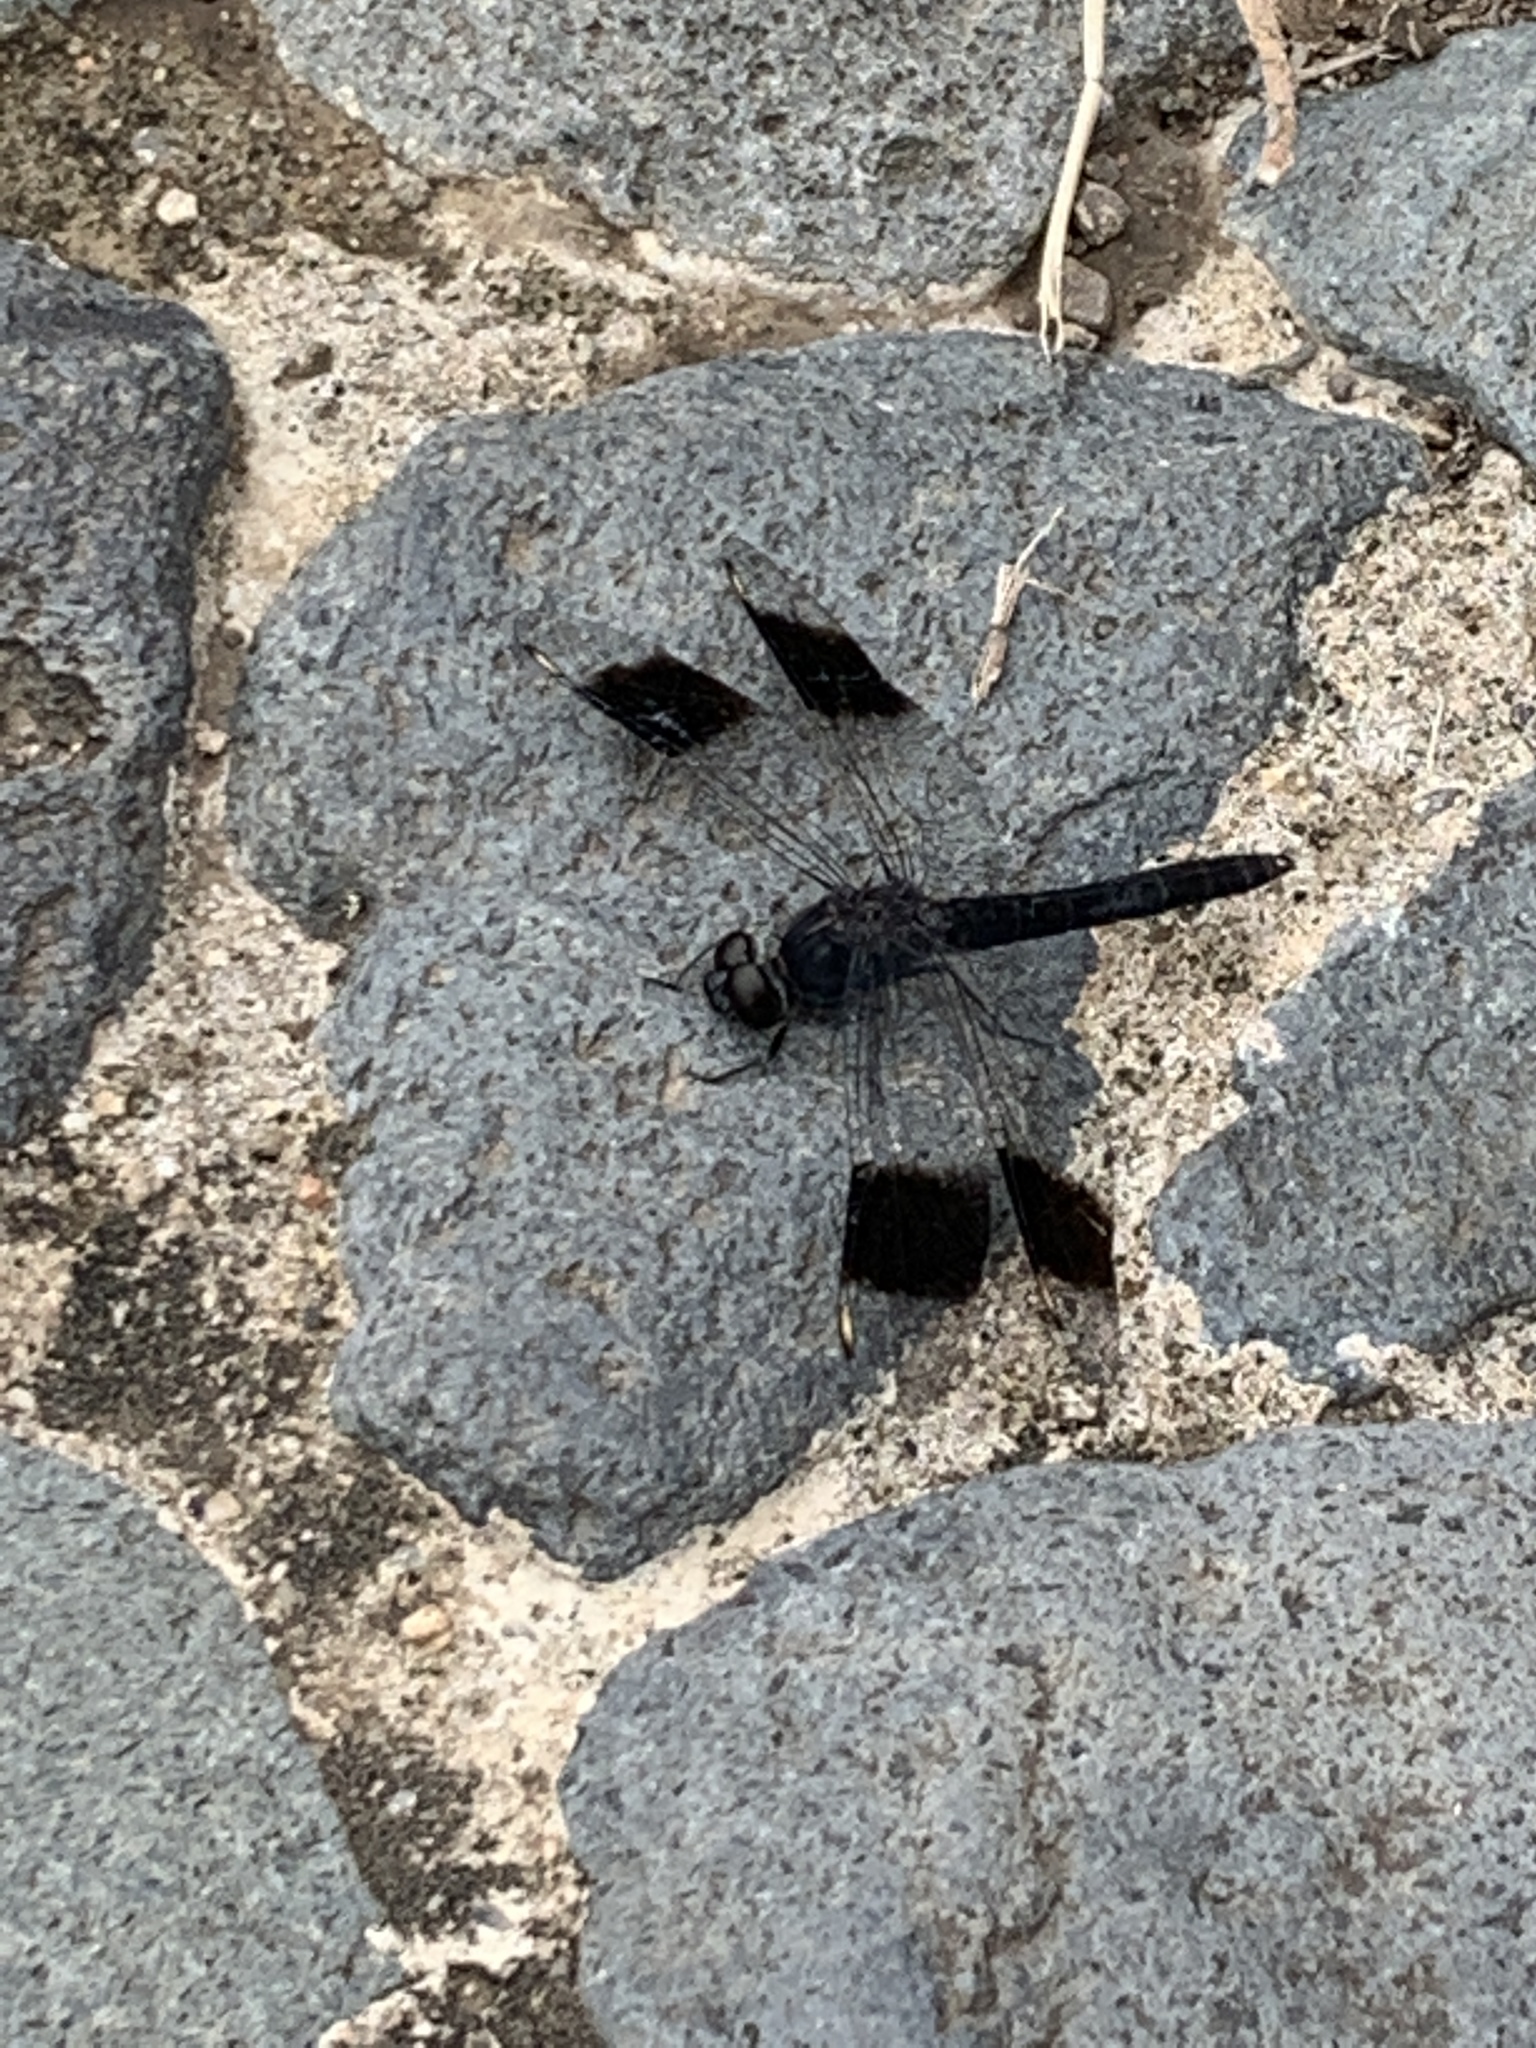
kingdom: Animalia
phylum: Arthropoda
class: Insecta
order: Odonata
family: Libellulidae
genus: Brachythemis
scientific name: Brachythemis leucosticta
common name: Banded groundling
